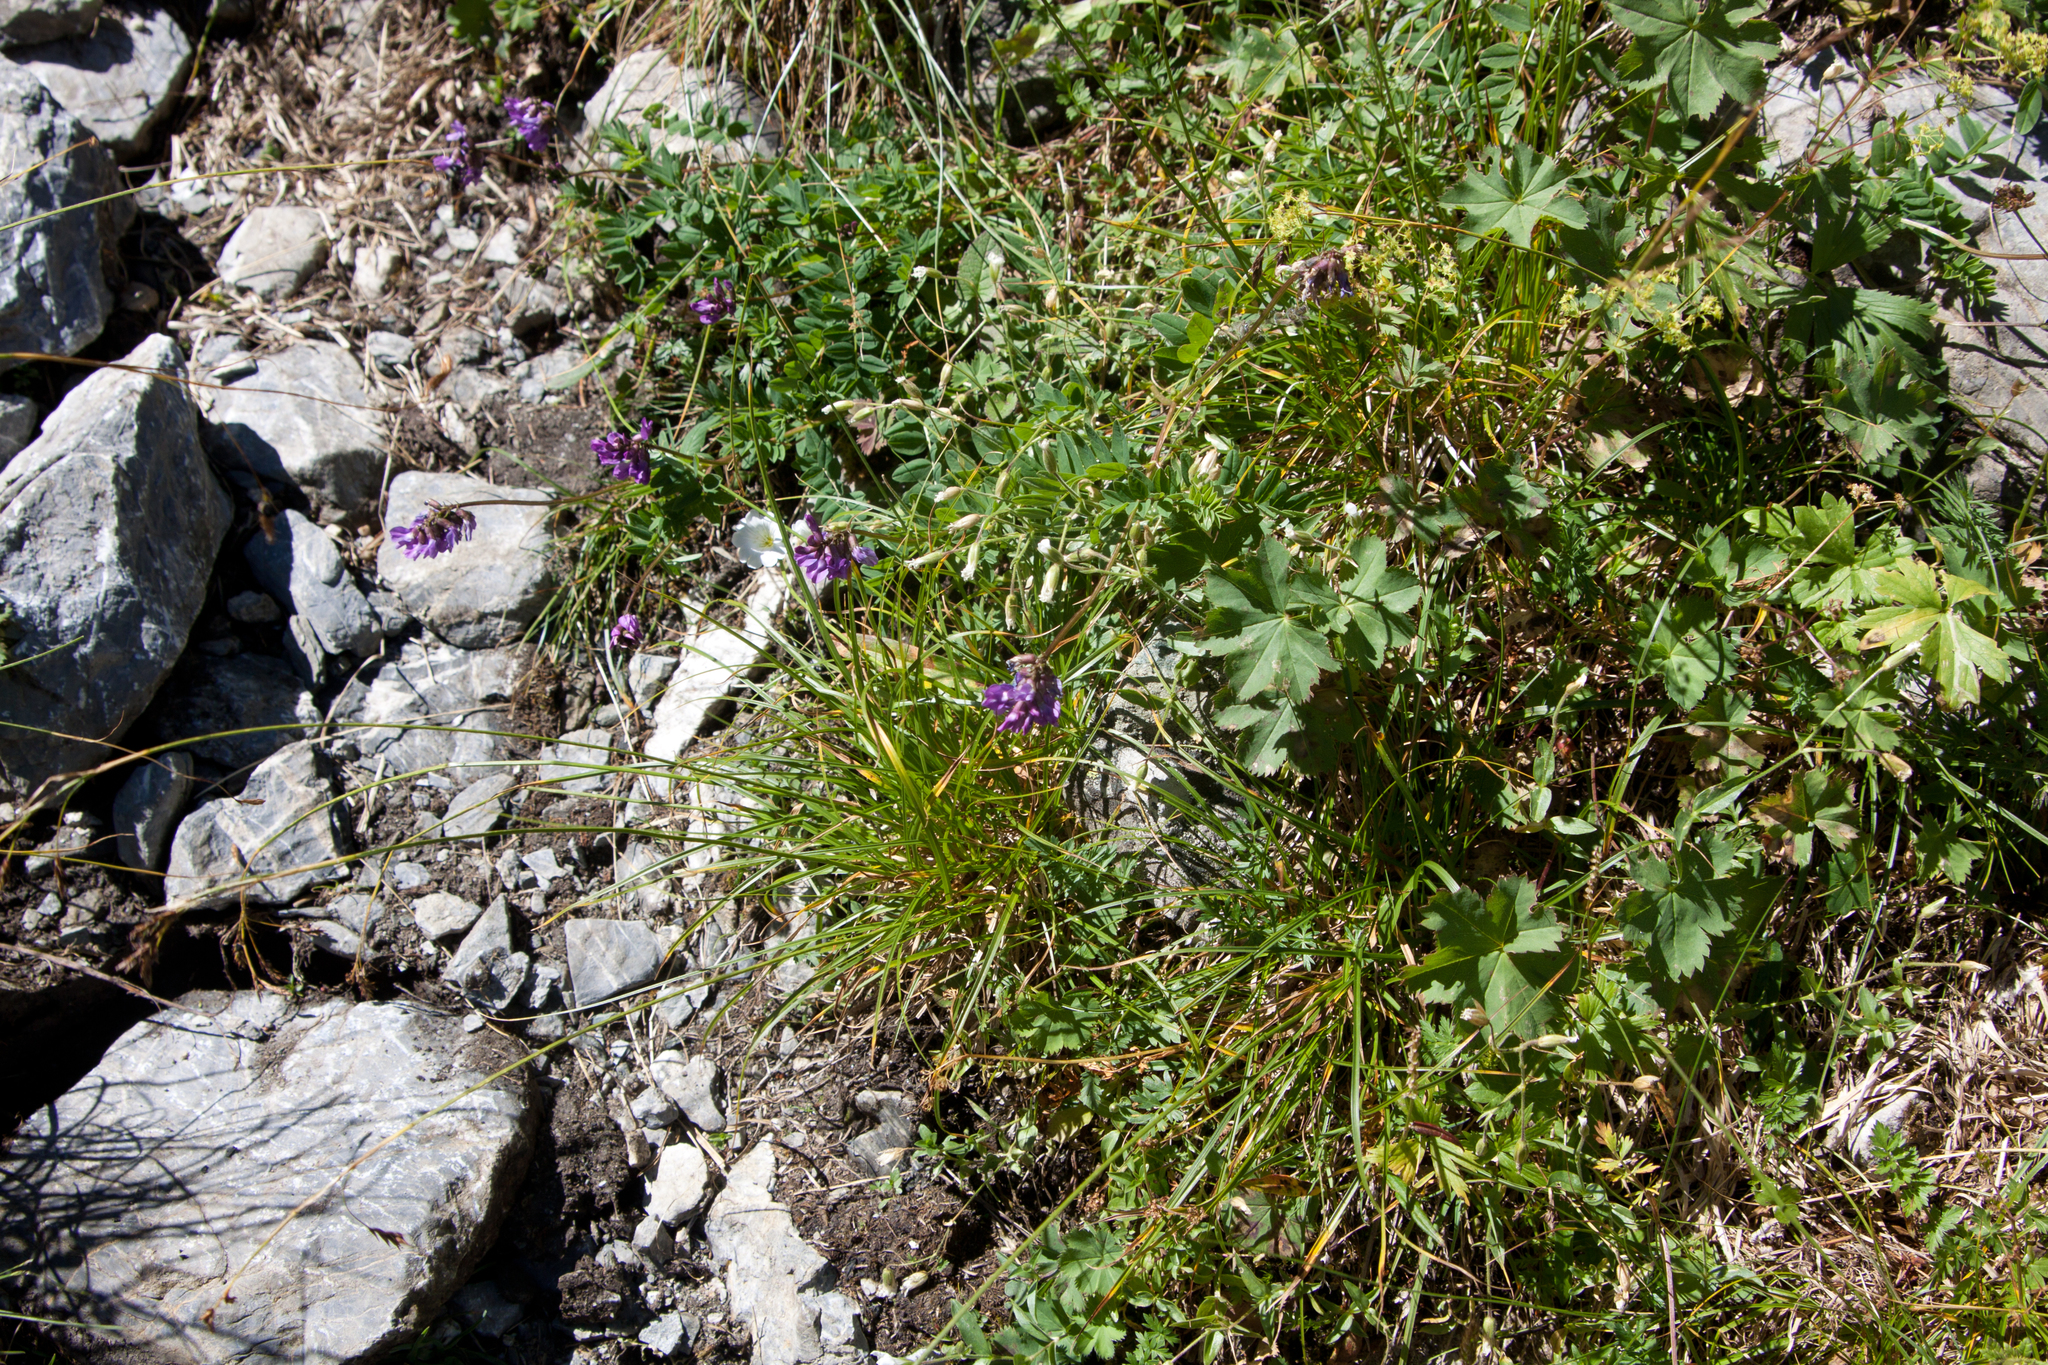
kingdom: Plantae
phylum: Tracheophyta
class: Magnoliopsida
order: Fabales
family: Fabaceae
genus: Astragalus
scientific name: Astragalus brachytropis
